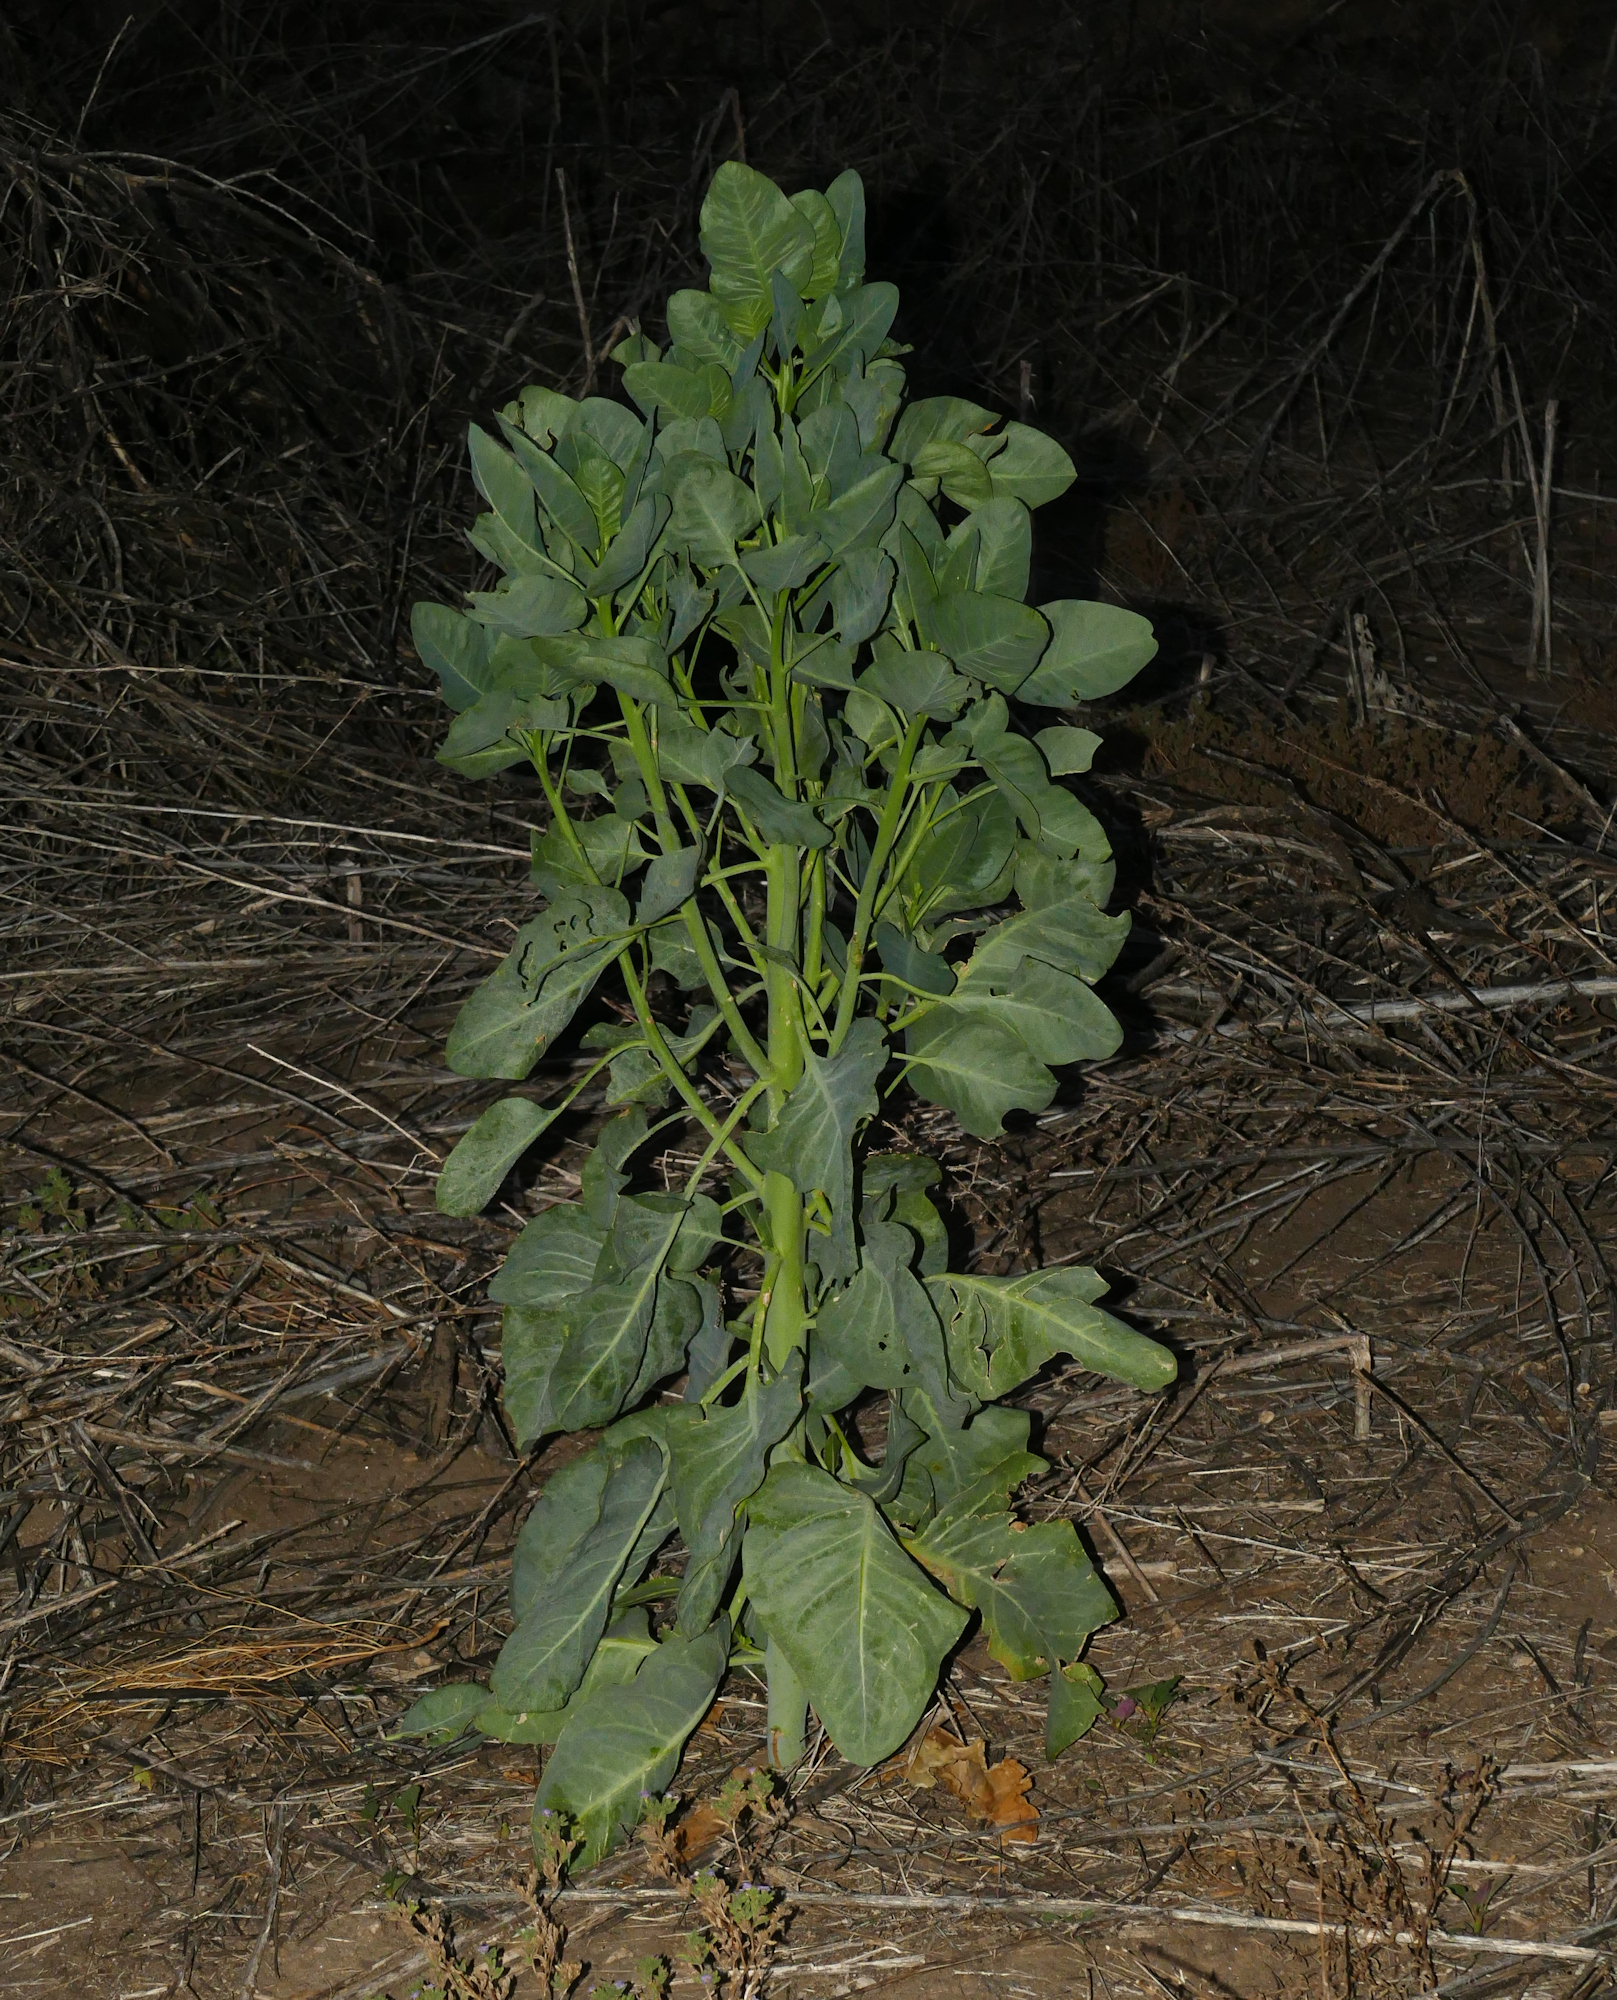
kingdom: Plantae
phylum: Tracheophyta
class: Magnoliopsida
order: Solanales
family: Solanaceae
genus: Nicotiana
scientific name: Nicotiana glauca
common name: Tree tobacco
